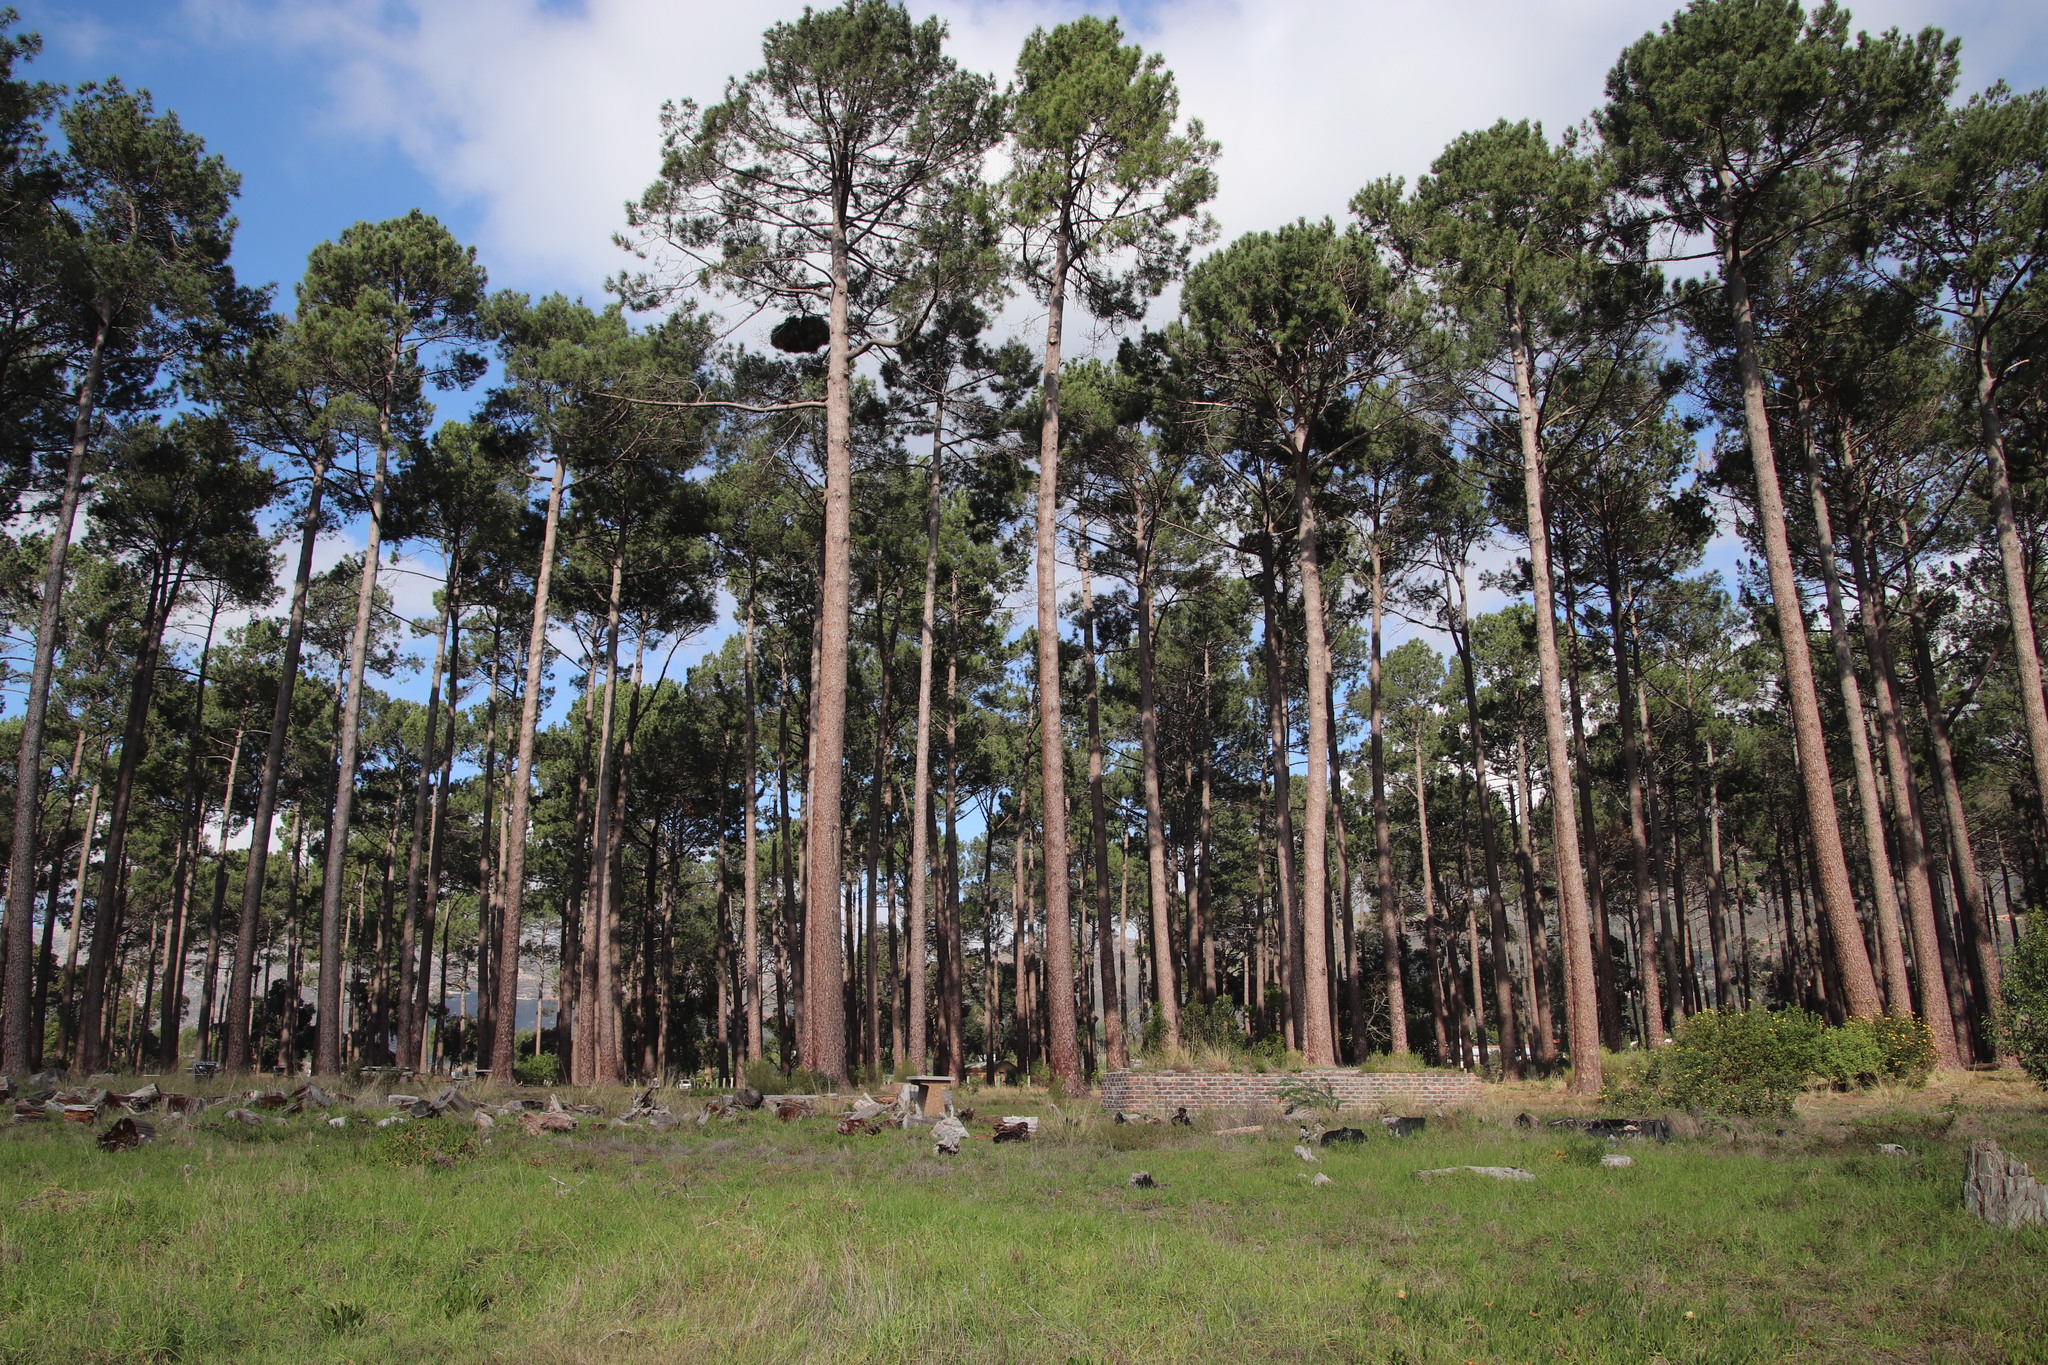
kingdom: Bacteria
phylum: Firmicutes
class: Bacilli
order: Acholeplasmatales
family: Acholeplasmataceae
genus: Phytoplasma
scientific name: Phytoplasma pini
